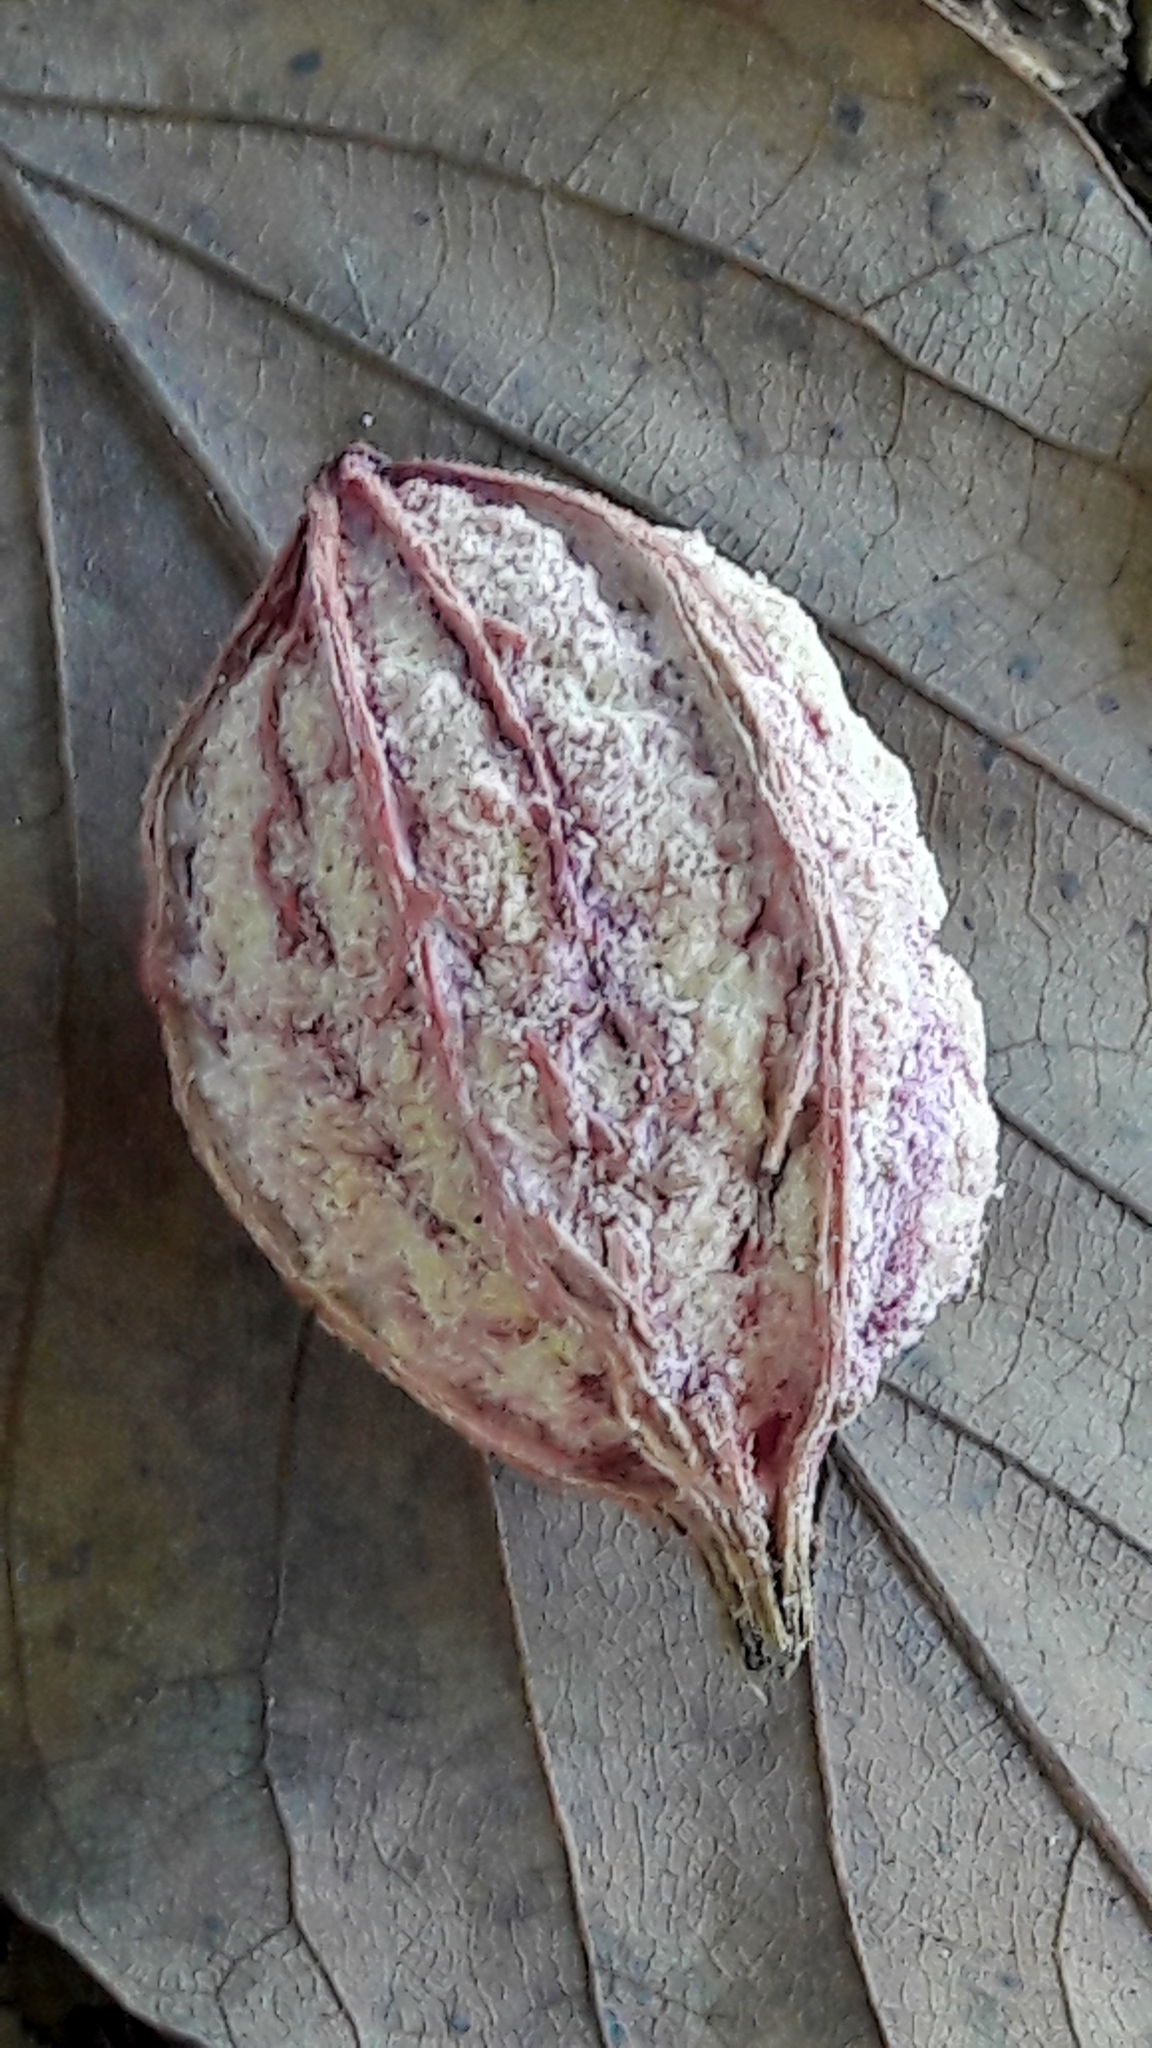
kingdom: Plantae
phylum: Tracheophyta
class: Magnoliopsida
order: Myrtales
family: Combretaceae
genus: Terminalia
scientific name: Terminalia catappa
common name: Tropical almond
